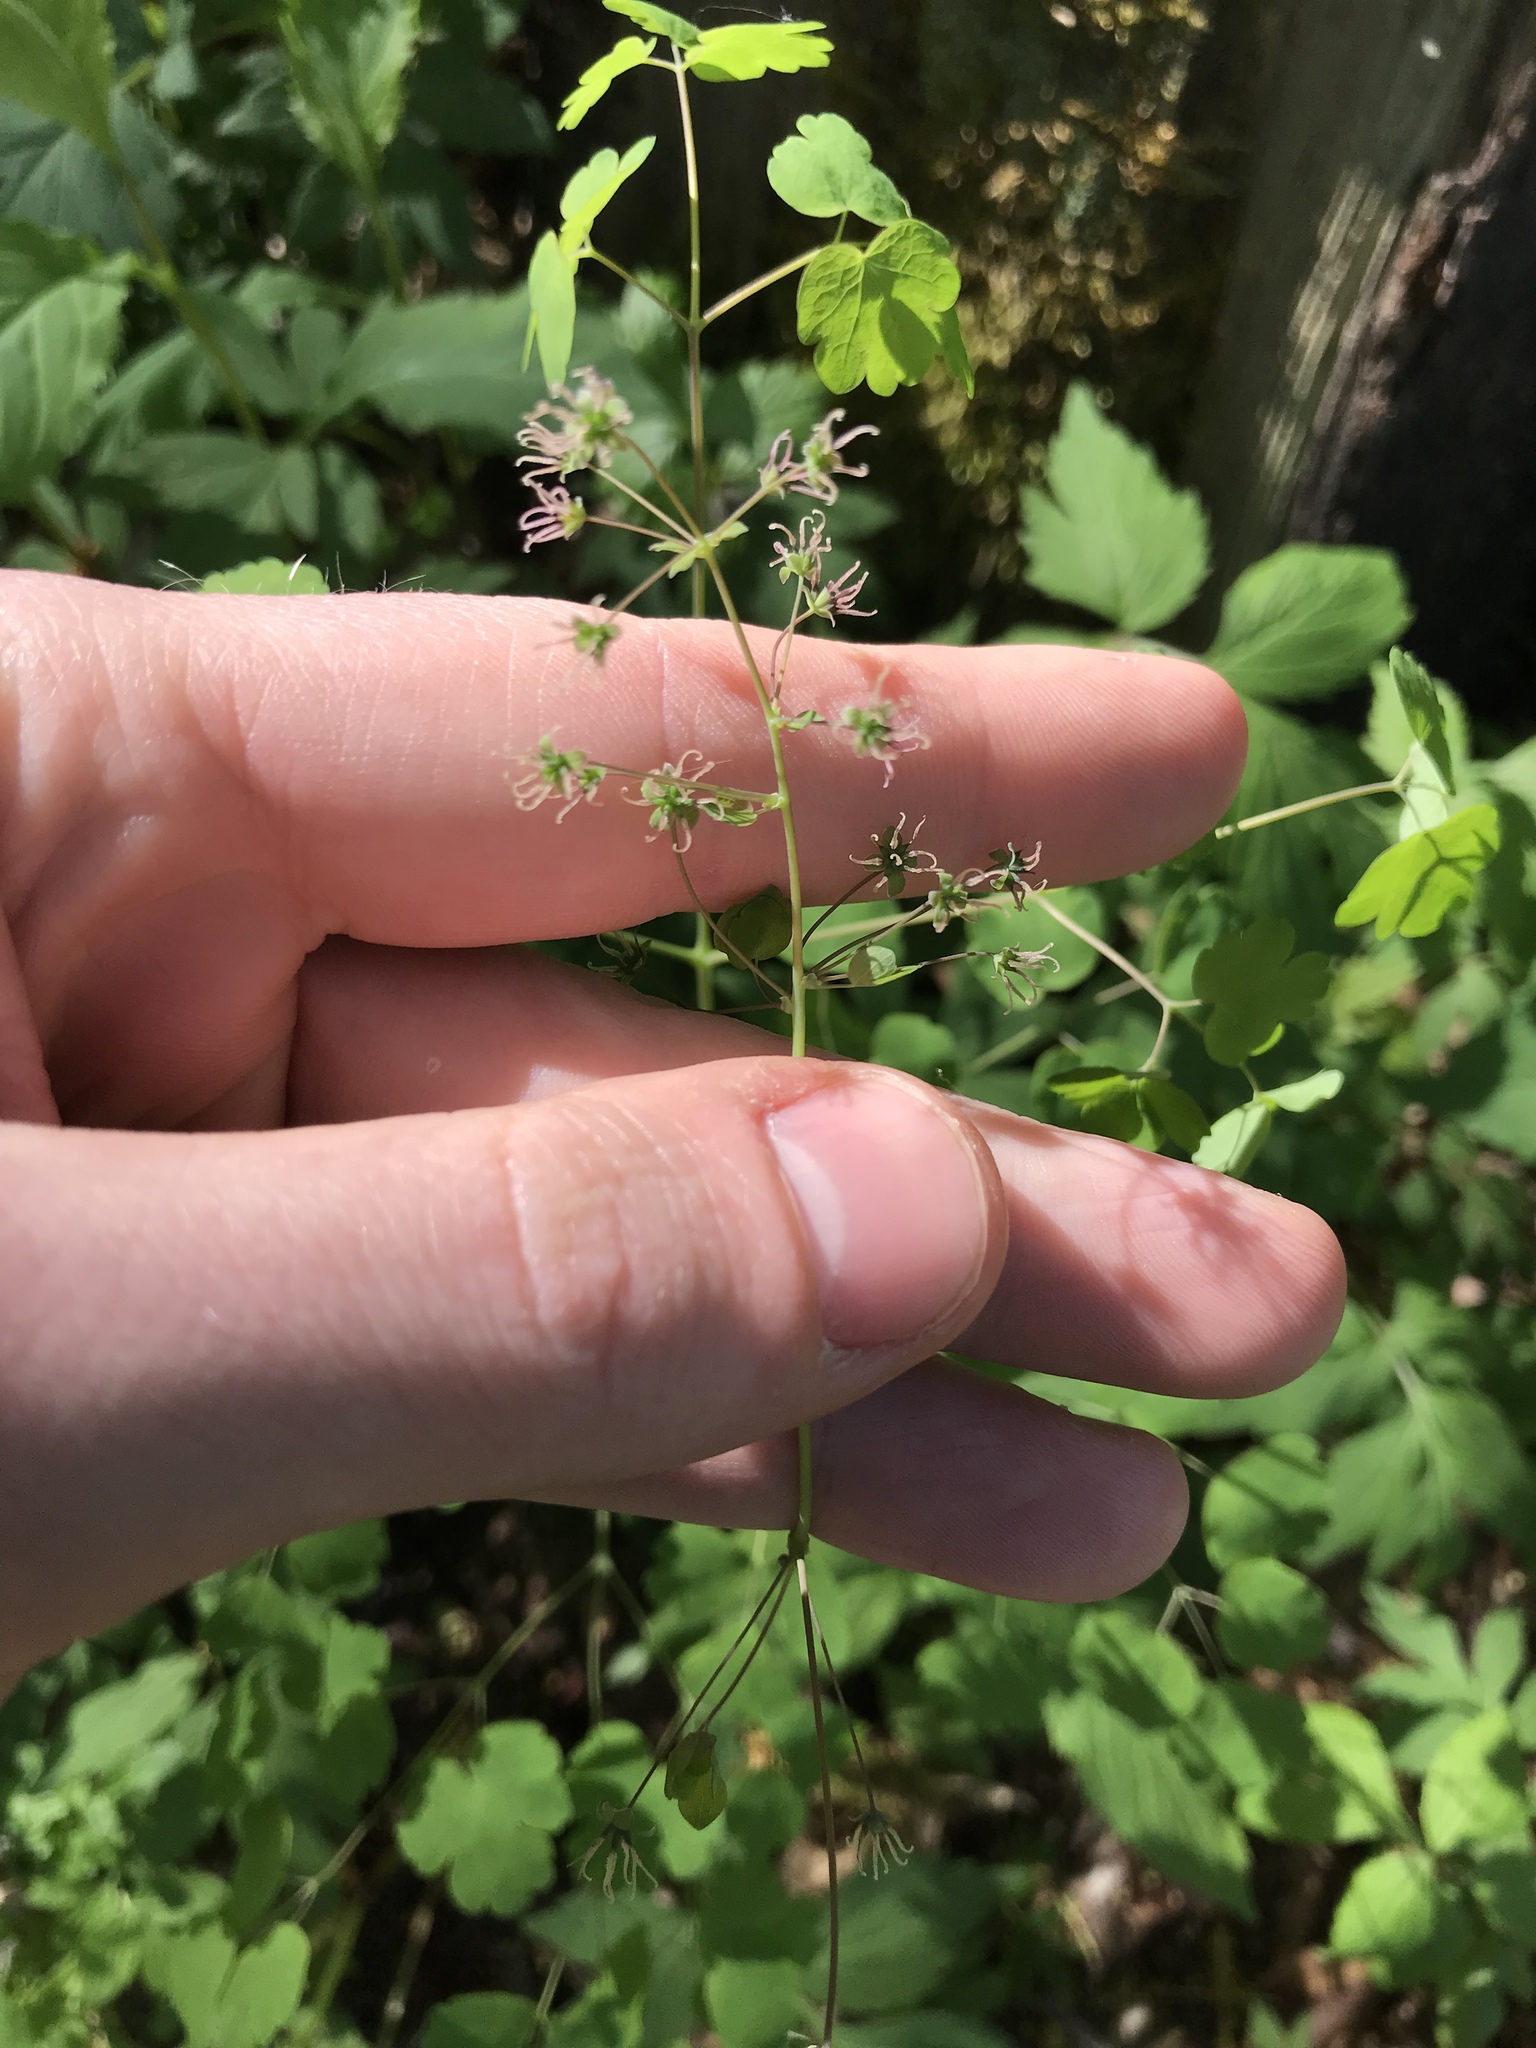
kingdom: Plantae
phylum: Tracheophyta
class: Magnoliopsida
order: Ranunculales
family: Ranunculaceae
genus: Thalictrum
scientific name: Thalictrum dioicum
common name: Early meadow-rue
